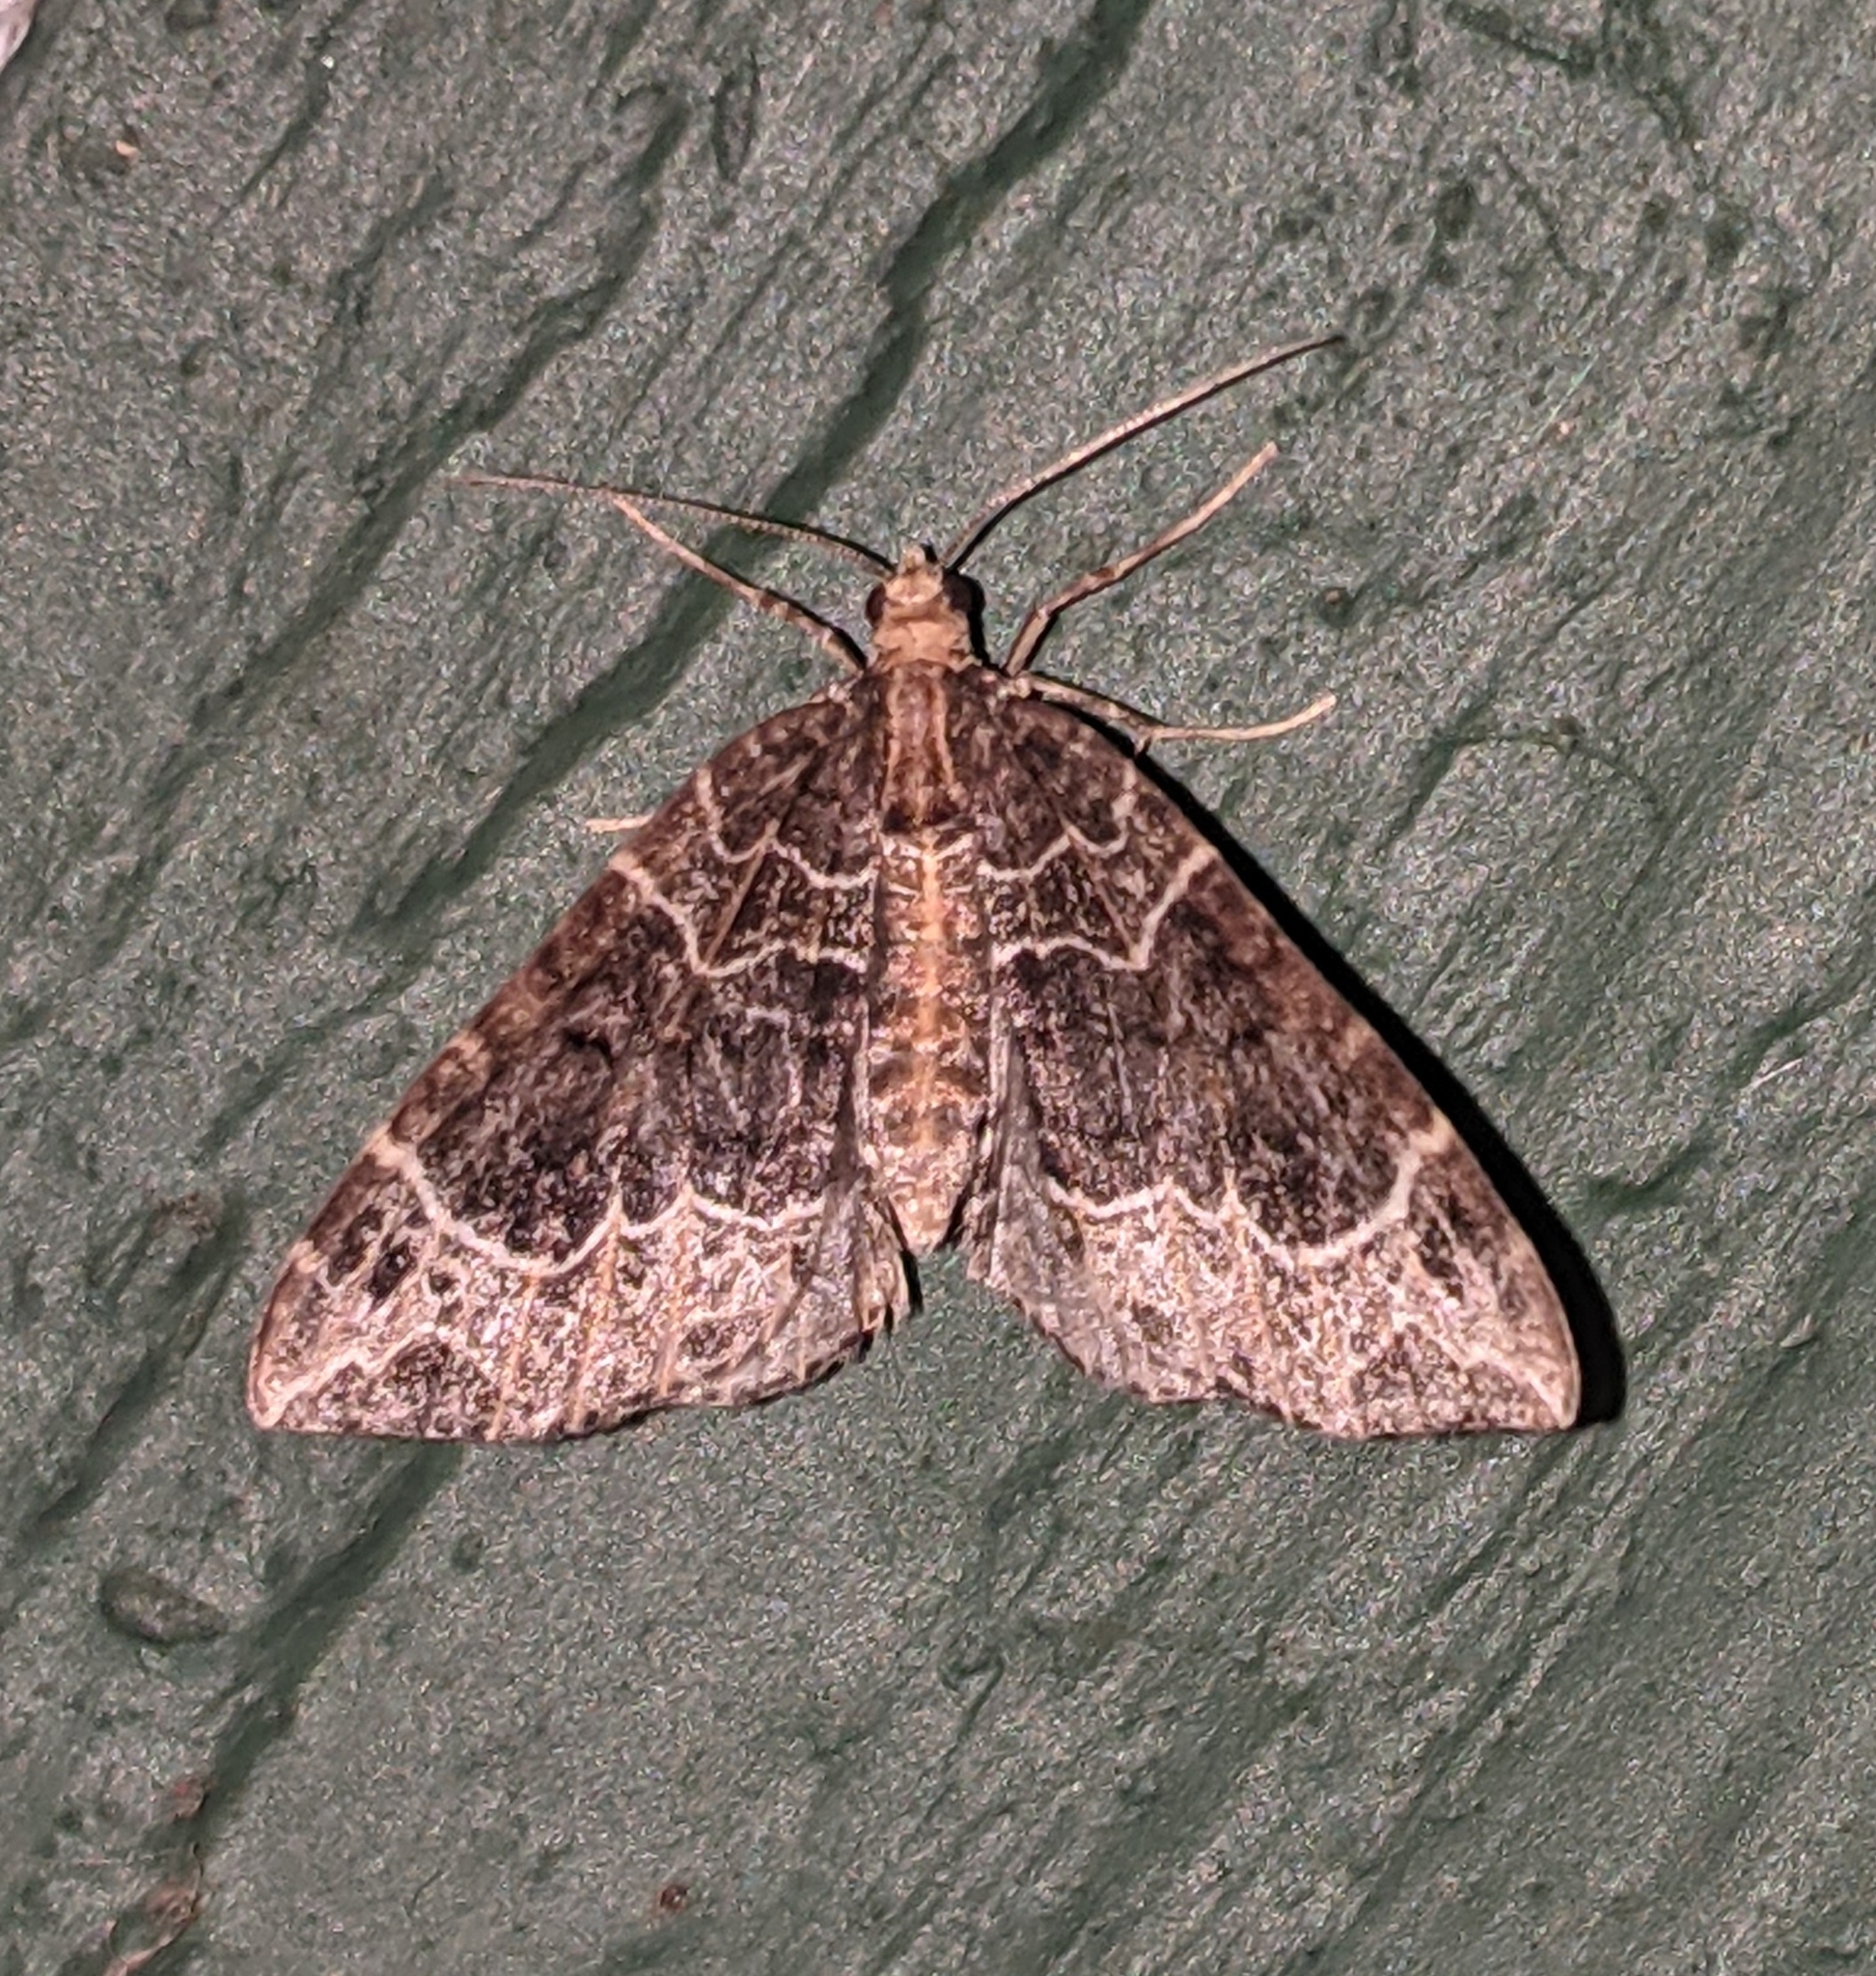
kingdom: Animalia
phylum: Arthropoda
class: Insecta
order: Lepidoptera
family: Geometridae
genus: Ecliptopera
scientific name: Ecliptopera silaceata
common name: Small phoenix
